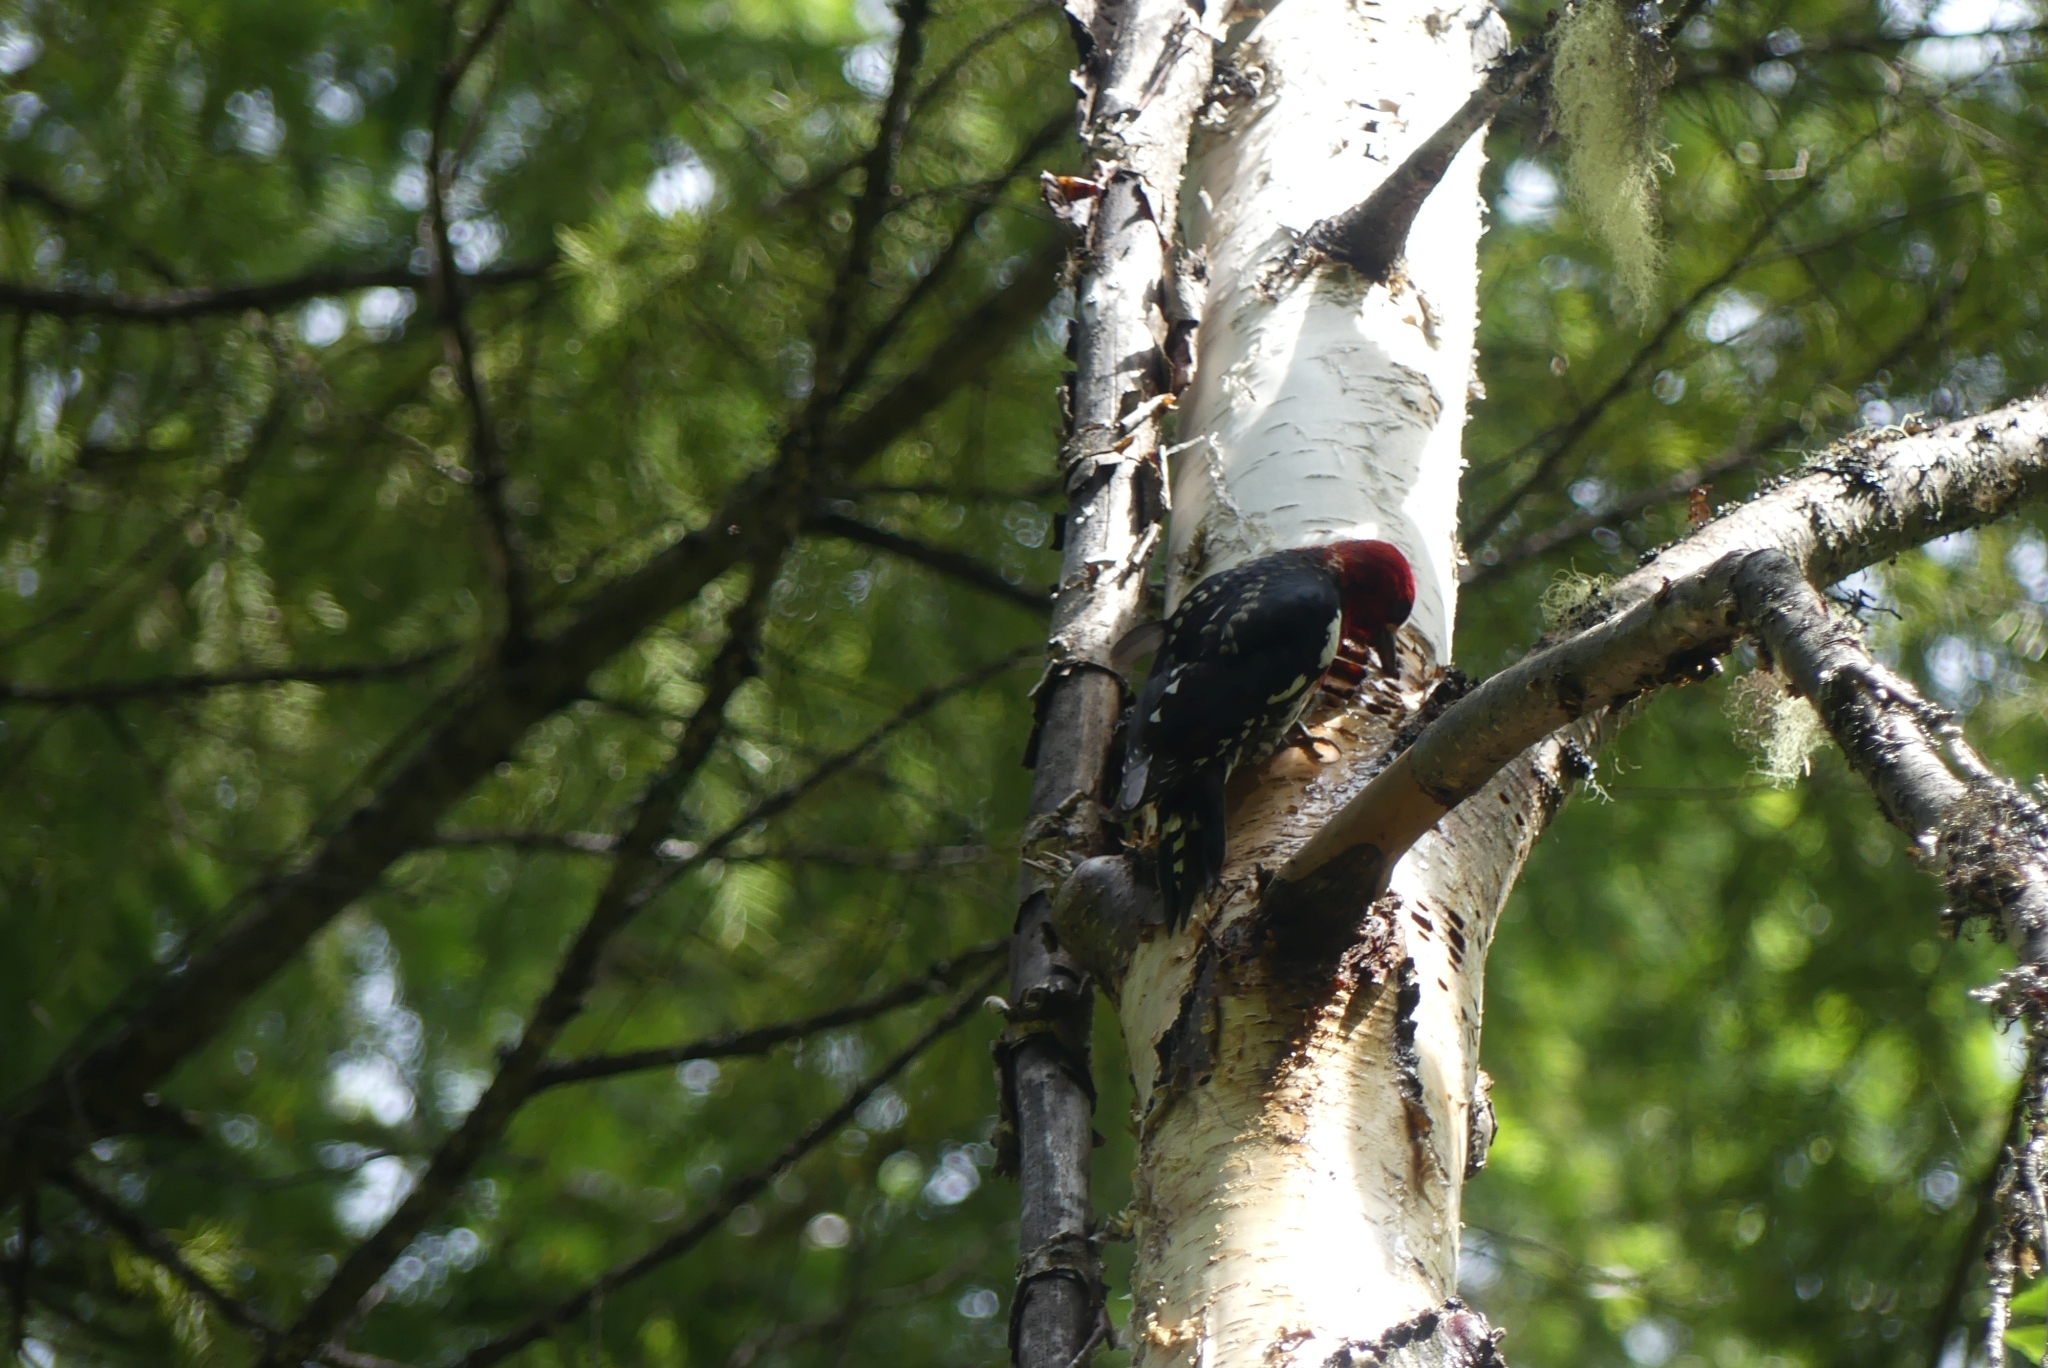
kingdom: Animalia
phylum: Chordata
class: Aves
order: Piciformes
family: Picidae
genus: Sphyrapicus
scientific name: Sphyrapicus ruber
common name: Red-breasted sapsucker
